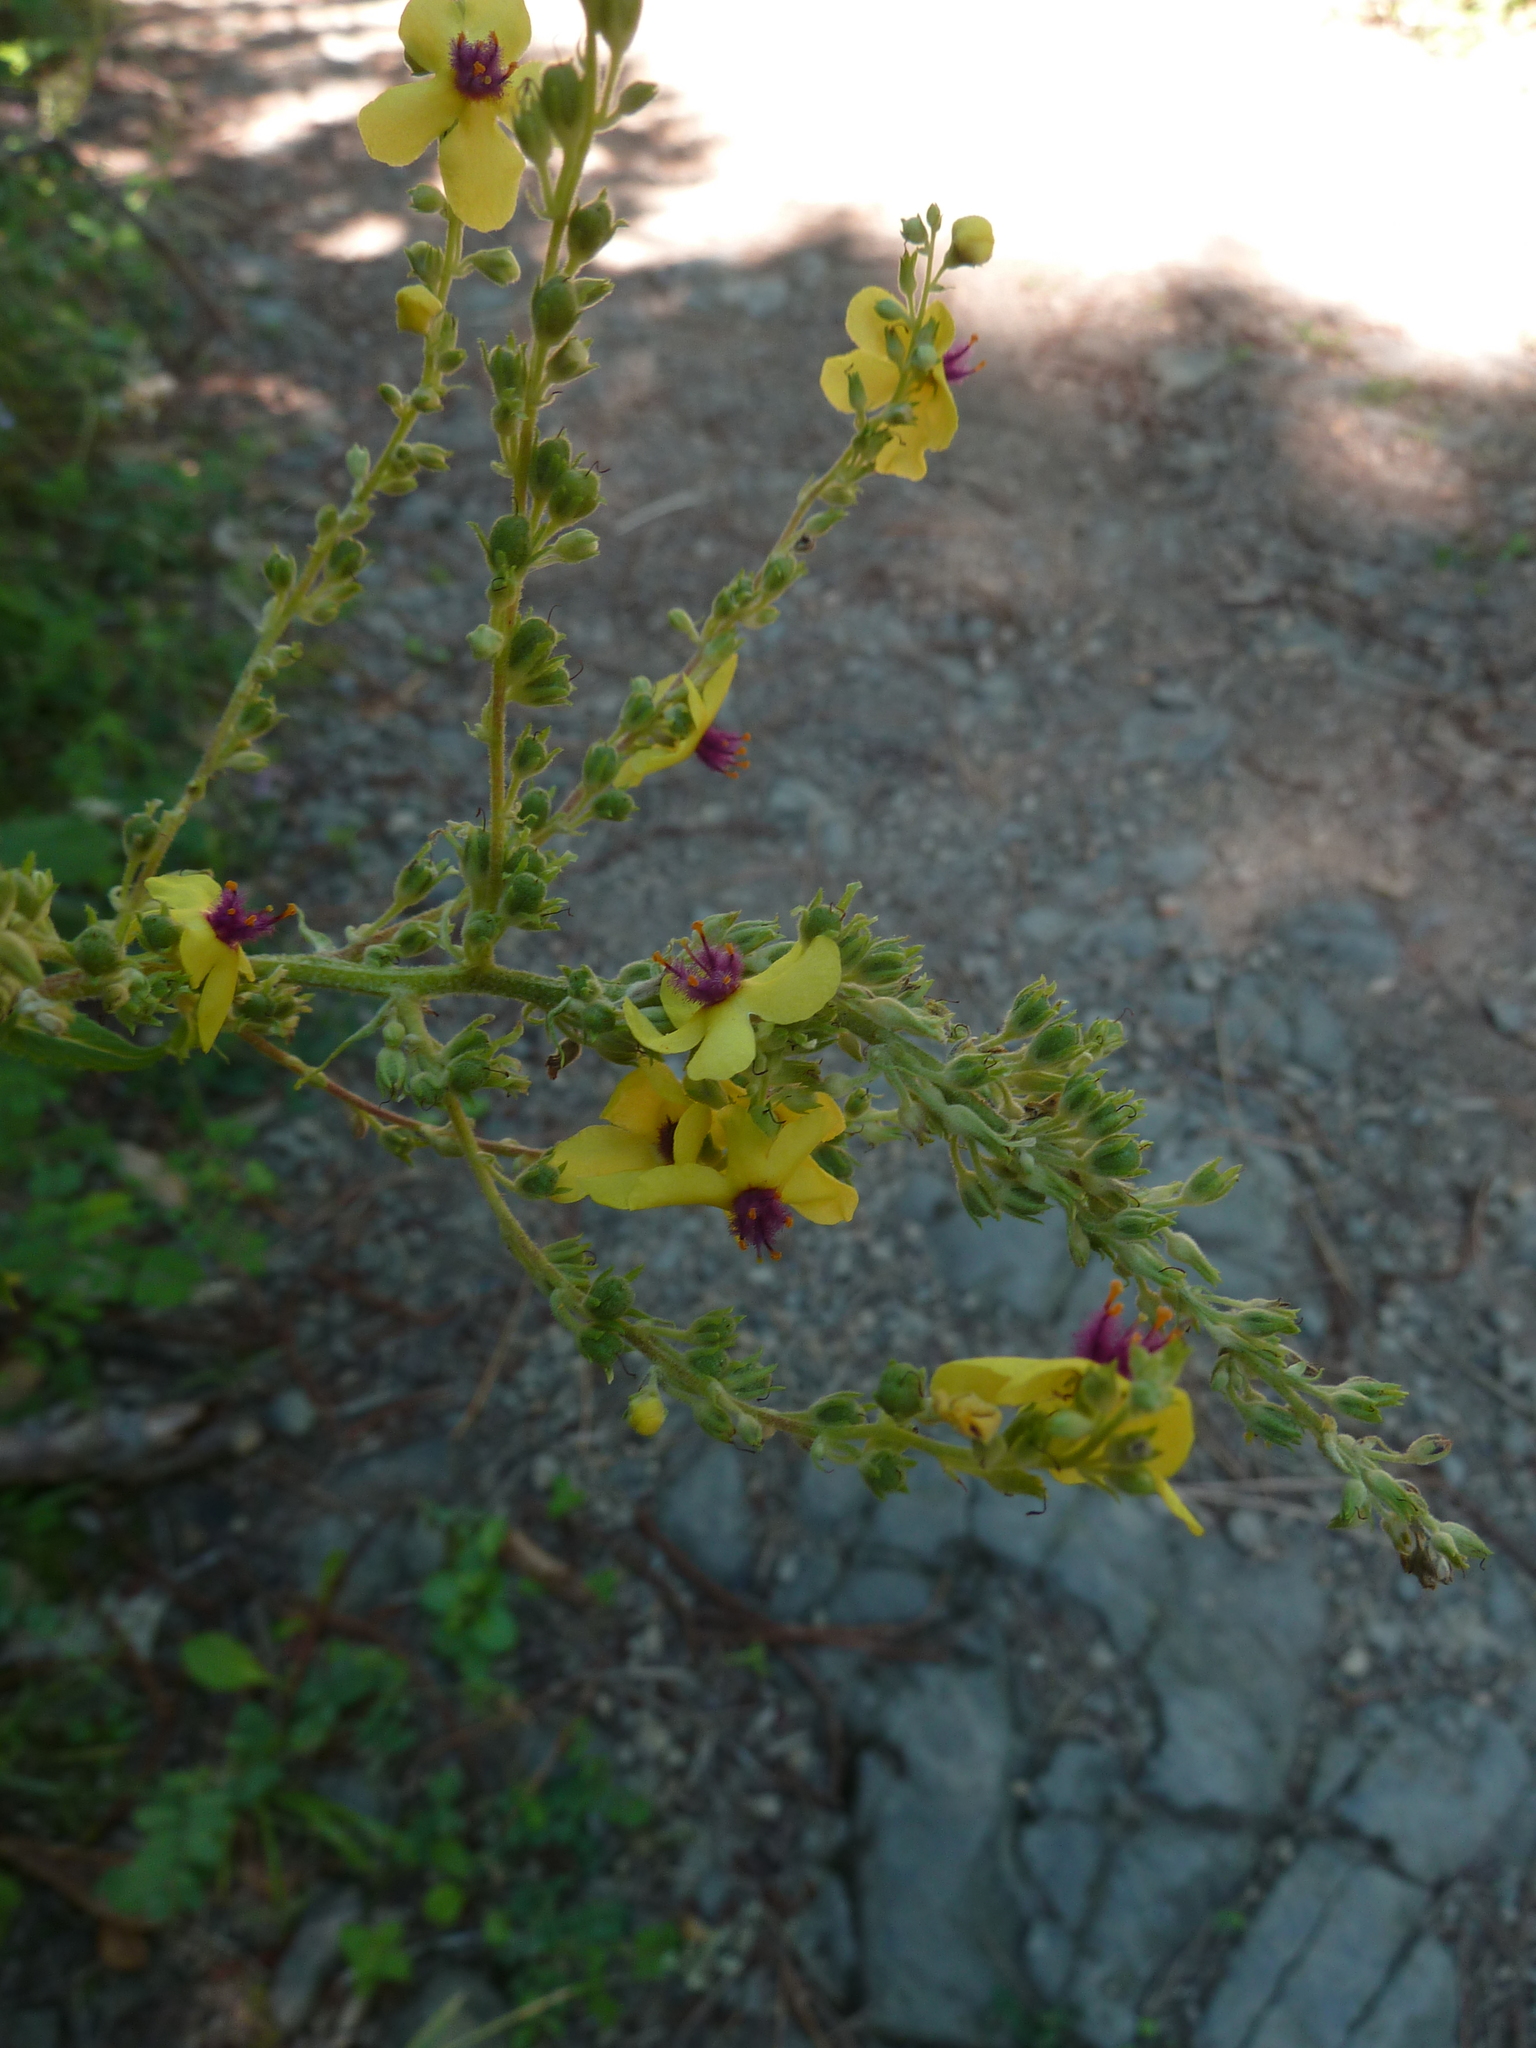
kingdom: Plantae
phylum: Tracheophyta
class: Magnoliopsida
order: Lamiales
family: Scrophulariaceae
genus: Verbascum
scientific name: Verbascum chaixii
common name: Nettle-leaved mullein
